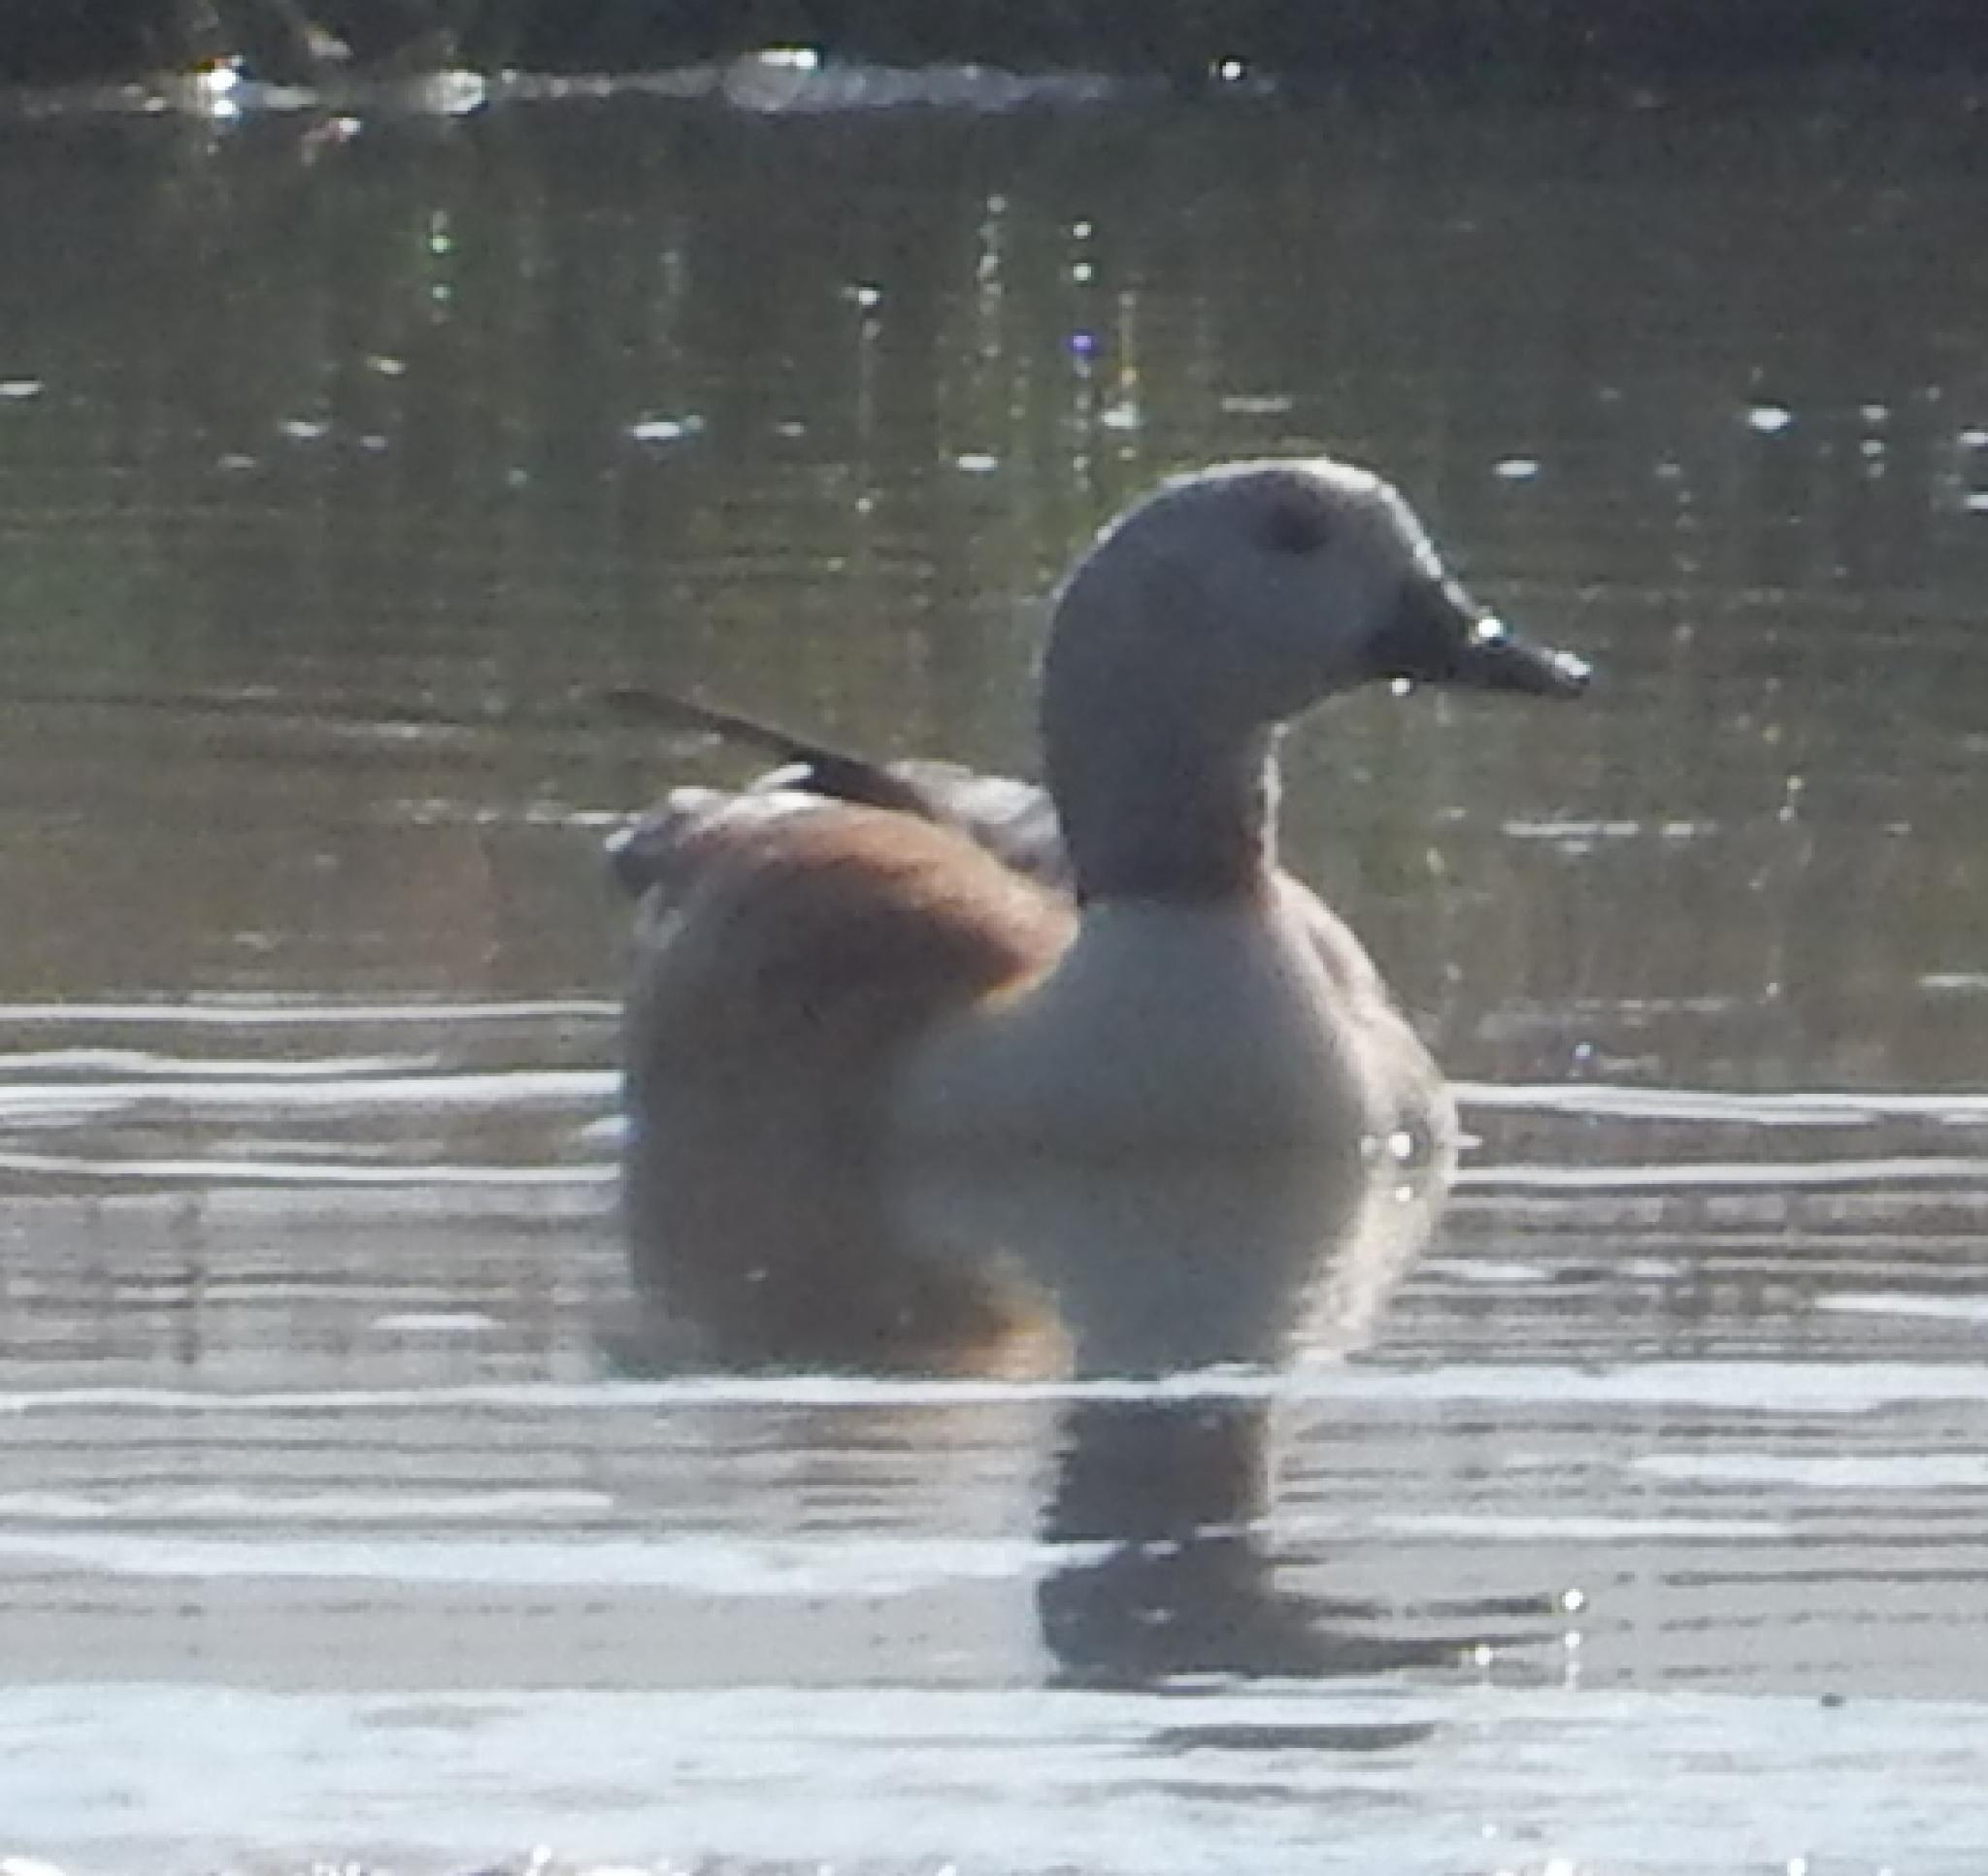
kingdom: Animalia
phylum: Chordata
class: Aves
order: Anseriformes
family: Anatidae
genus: Tadorna
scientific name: Tadorna cana
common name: South african shelduck
